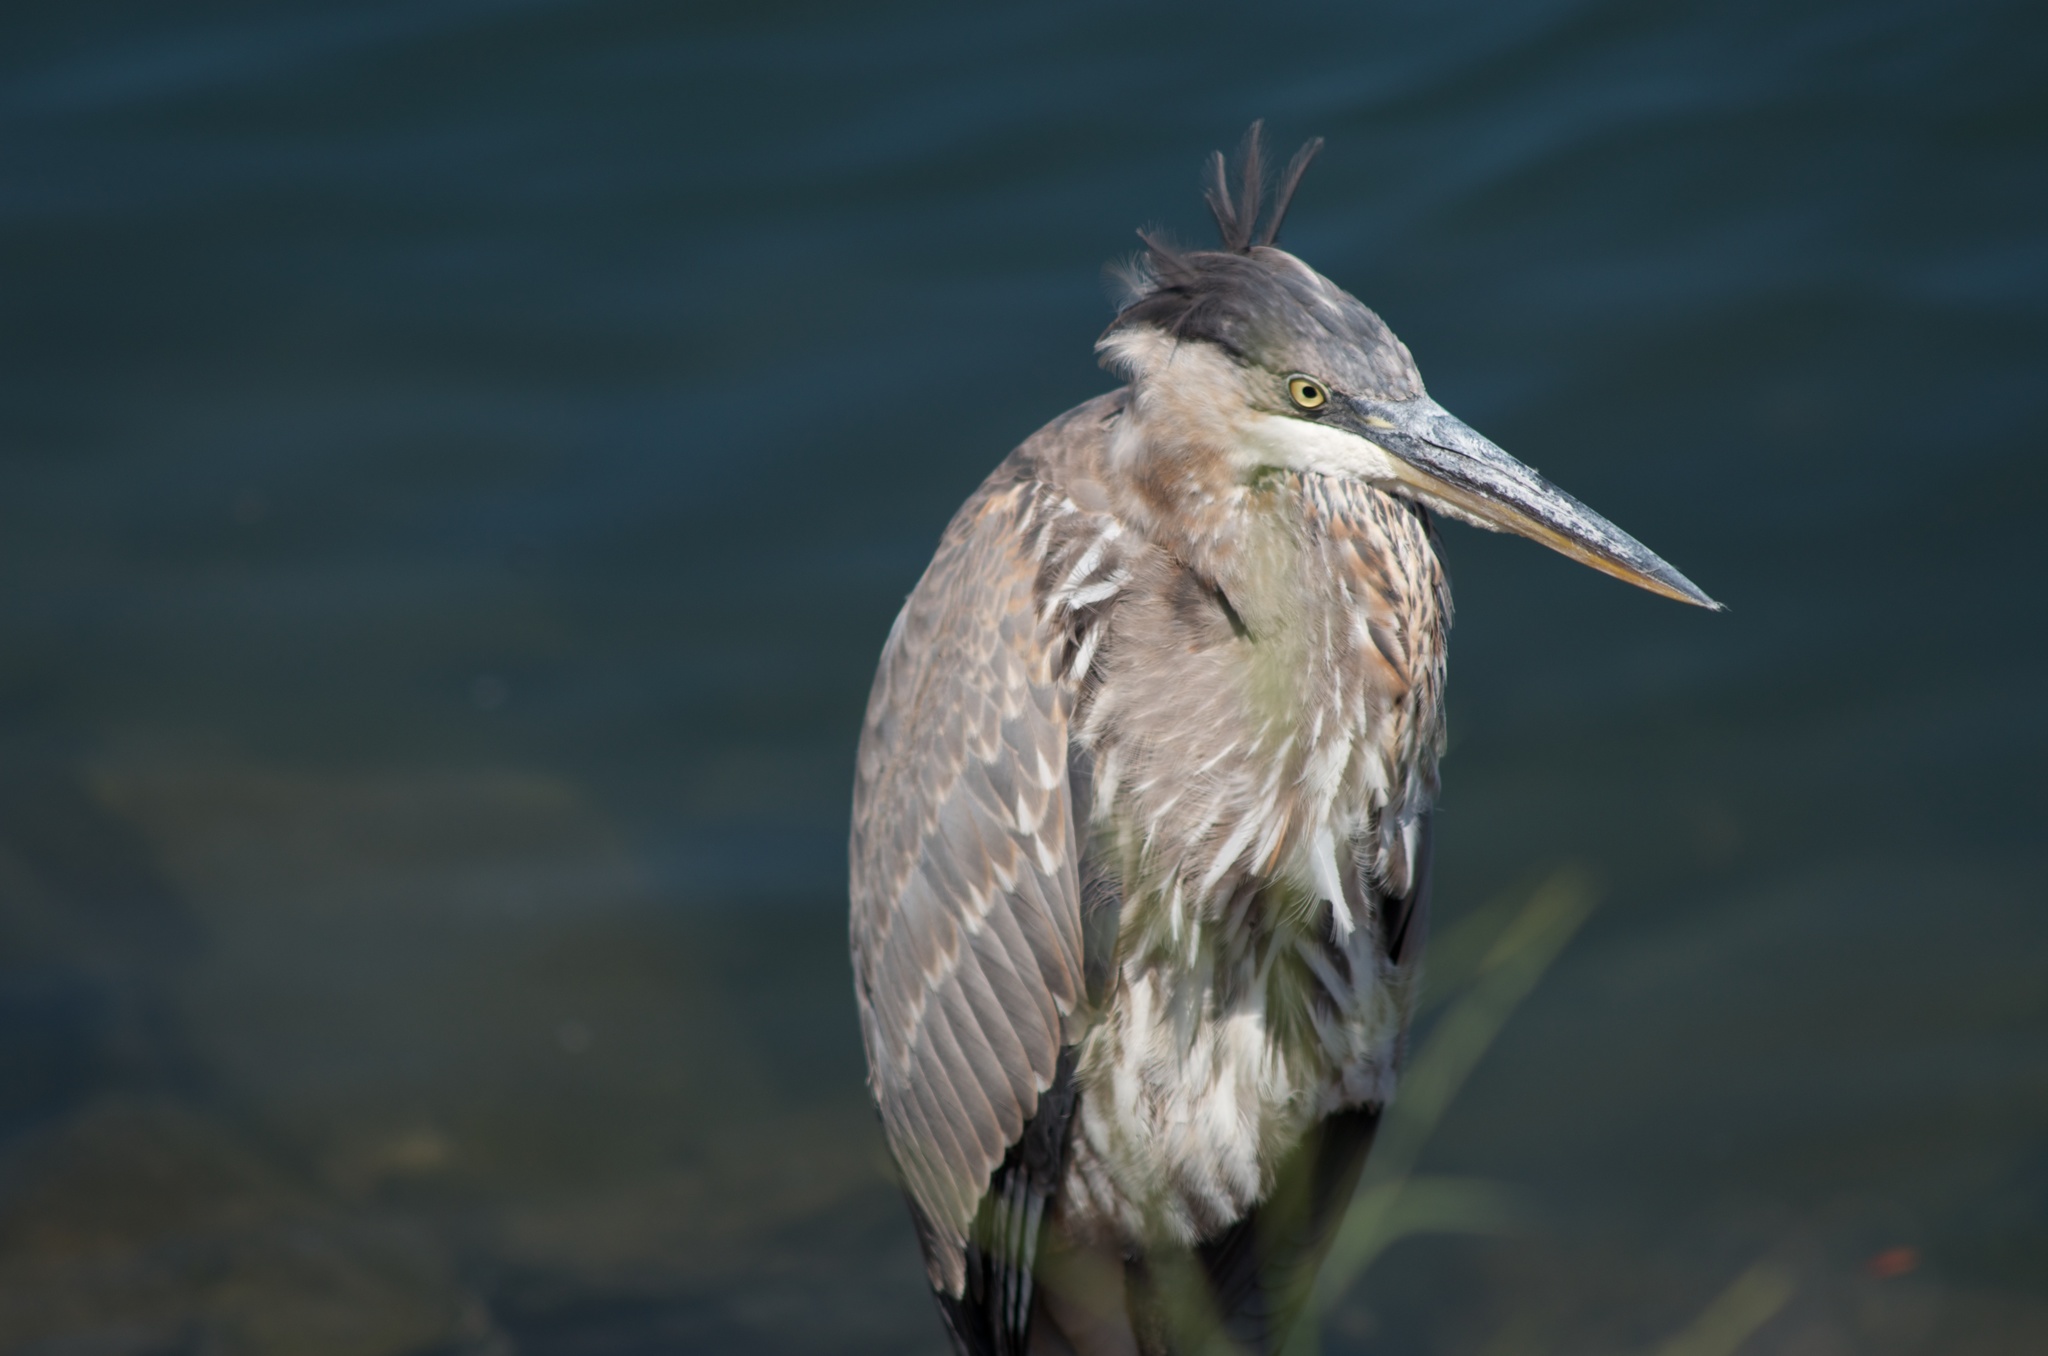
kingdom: Animalia
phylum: Chordata
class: Aves
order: Pelecaniformes
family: Ardeidae
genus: Ardea
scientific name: Ardea herodias
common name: Great blue heron
